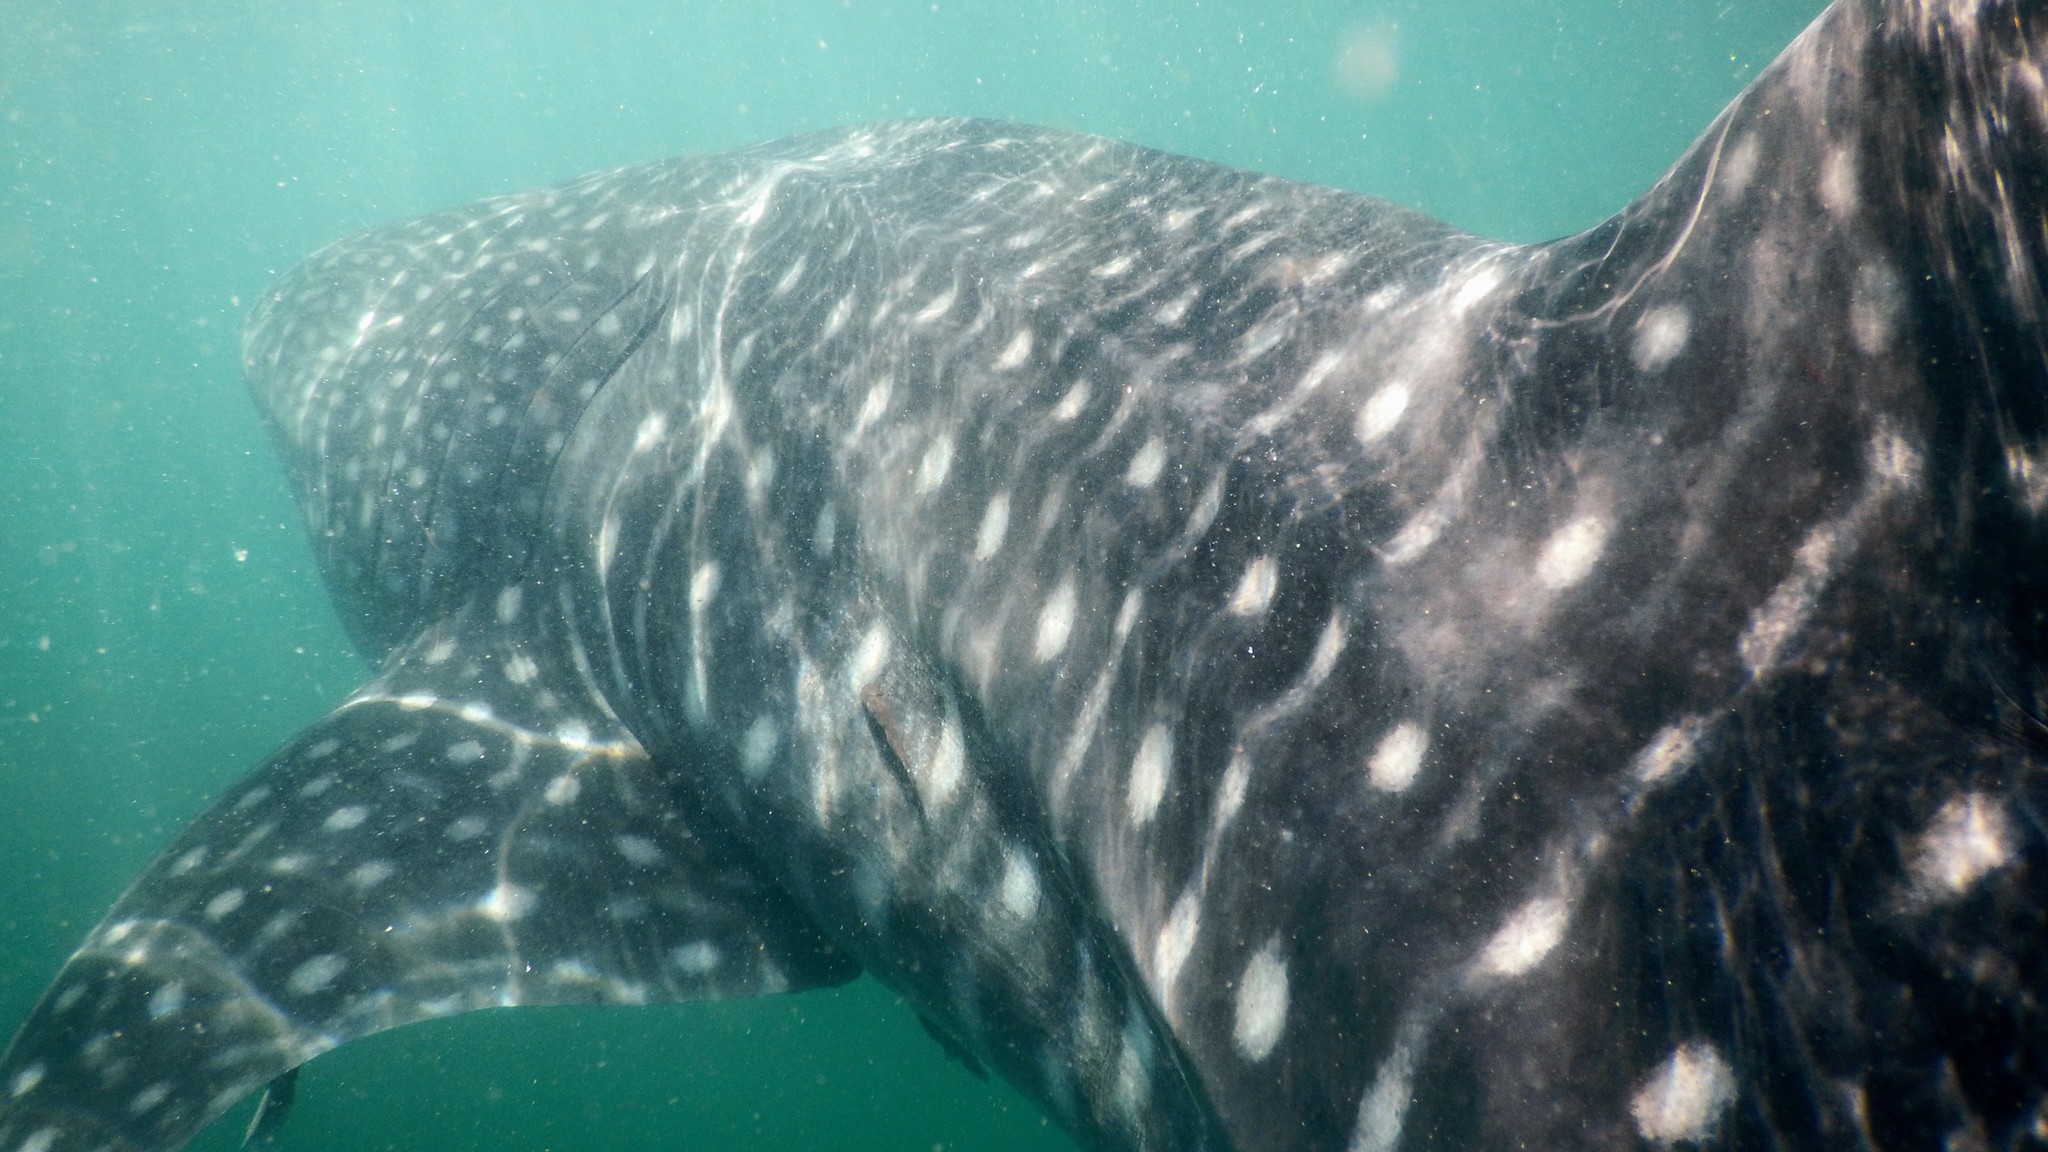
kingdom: Animalia
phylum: Chordata
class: Elasmobranchii
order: Orectolobiformes
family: Rhincodontidae
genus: Rhincodon
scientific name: Rhincodon typus
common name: Whale shark
